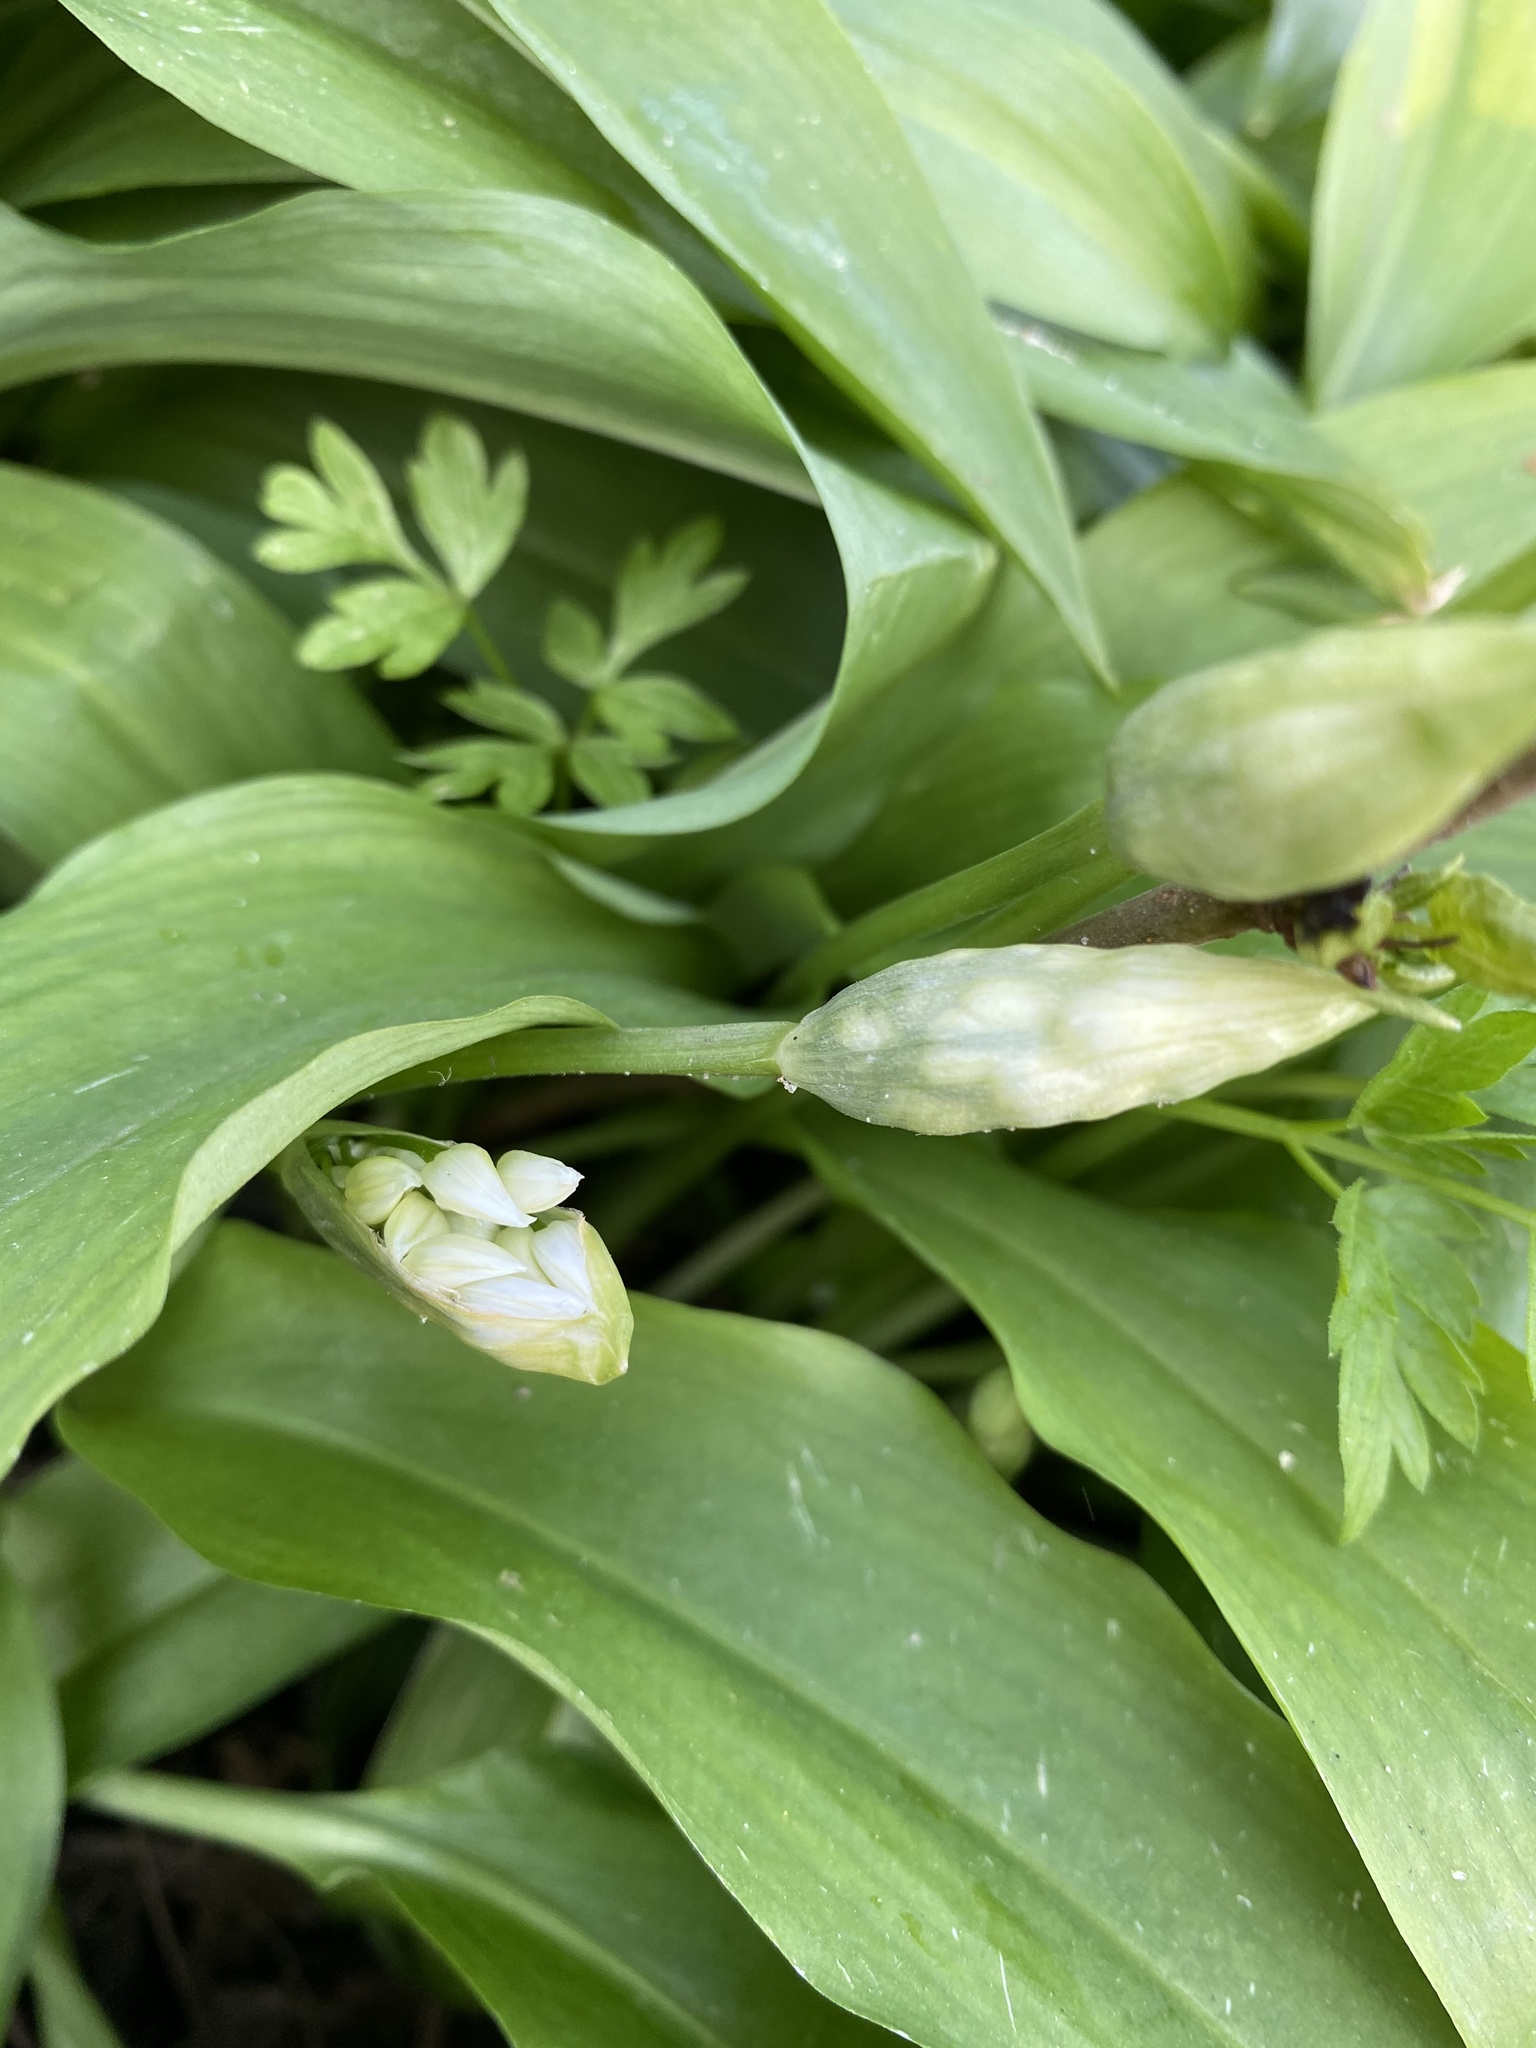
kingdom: Plantae
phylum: Tracheophyta
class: Liliopsida
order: Asparagales
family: Amaryllidaceae
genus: Allium
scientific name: Allium ursinum
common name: Ramsons
